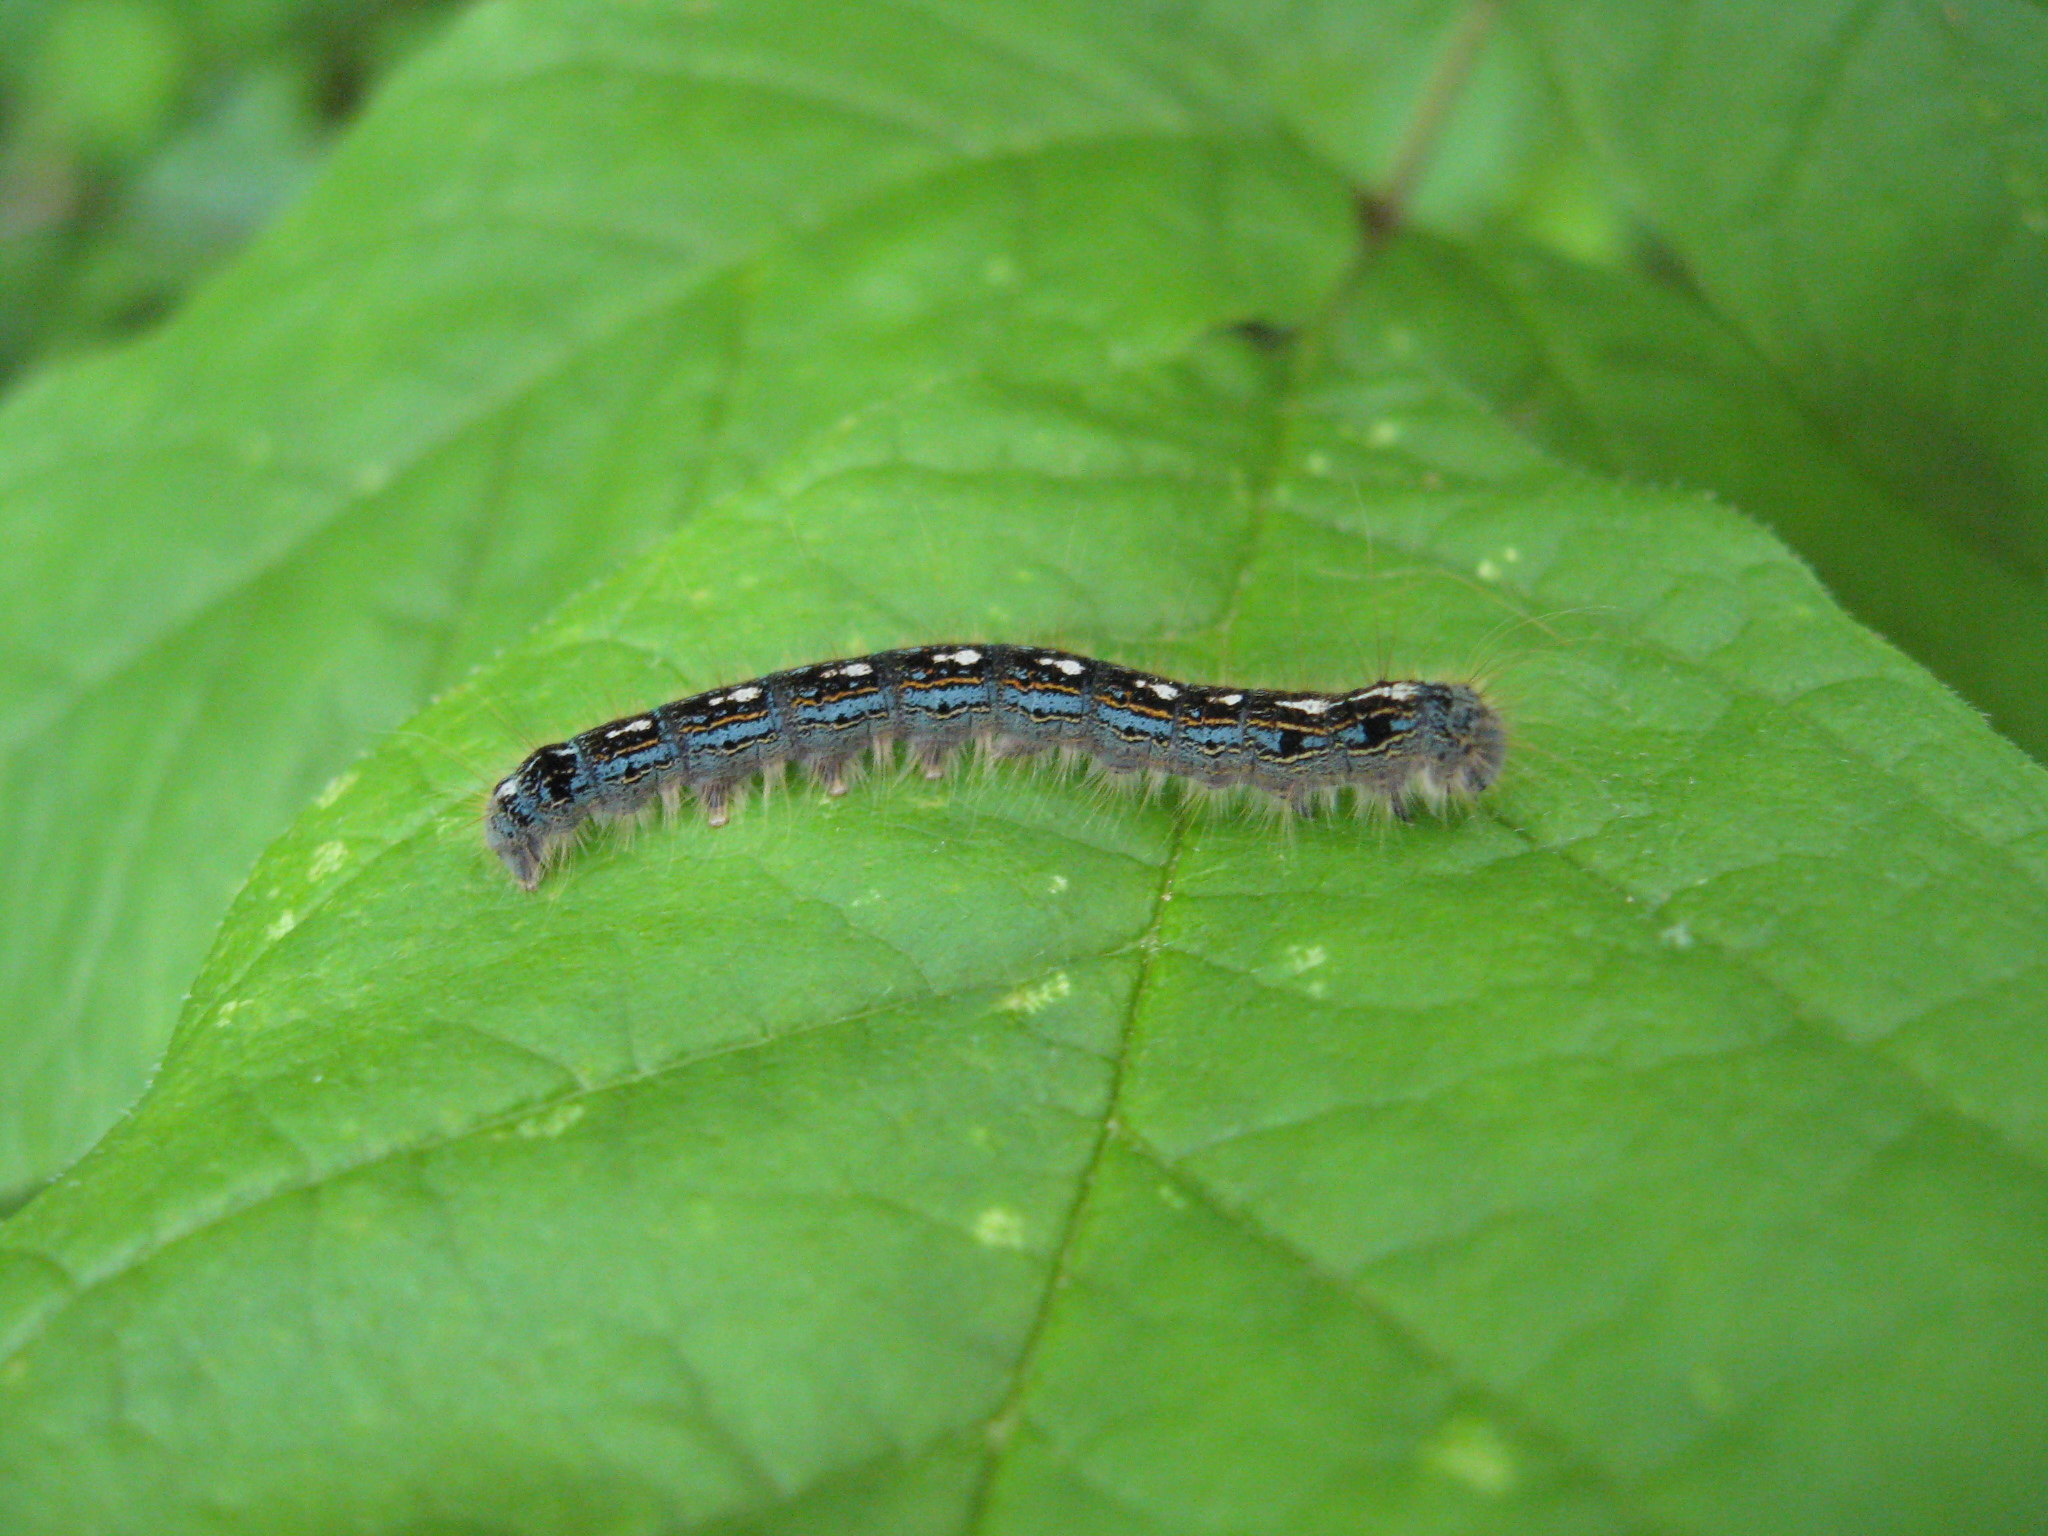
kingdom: Animalia
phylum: Arthropoda
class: Insecta
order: Lepidoptera
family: Lasiocampidae
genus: Malacosoma
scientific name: Malacosoma disstria
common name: Forest tent caterpillar
